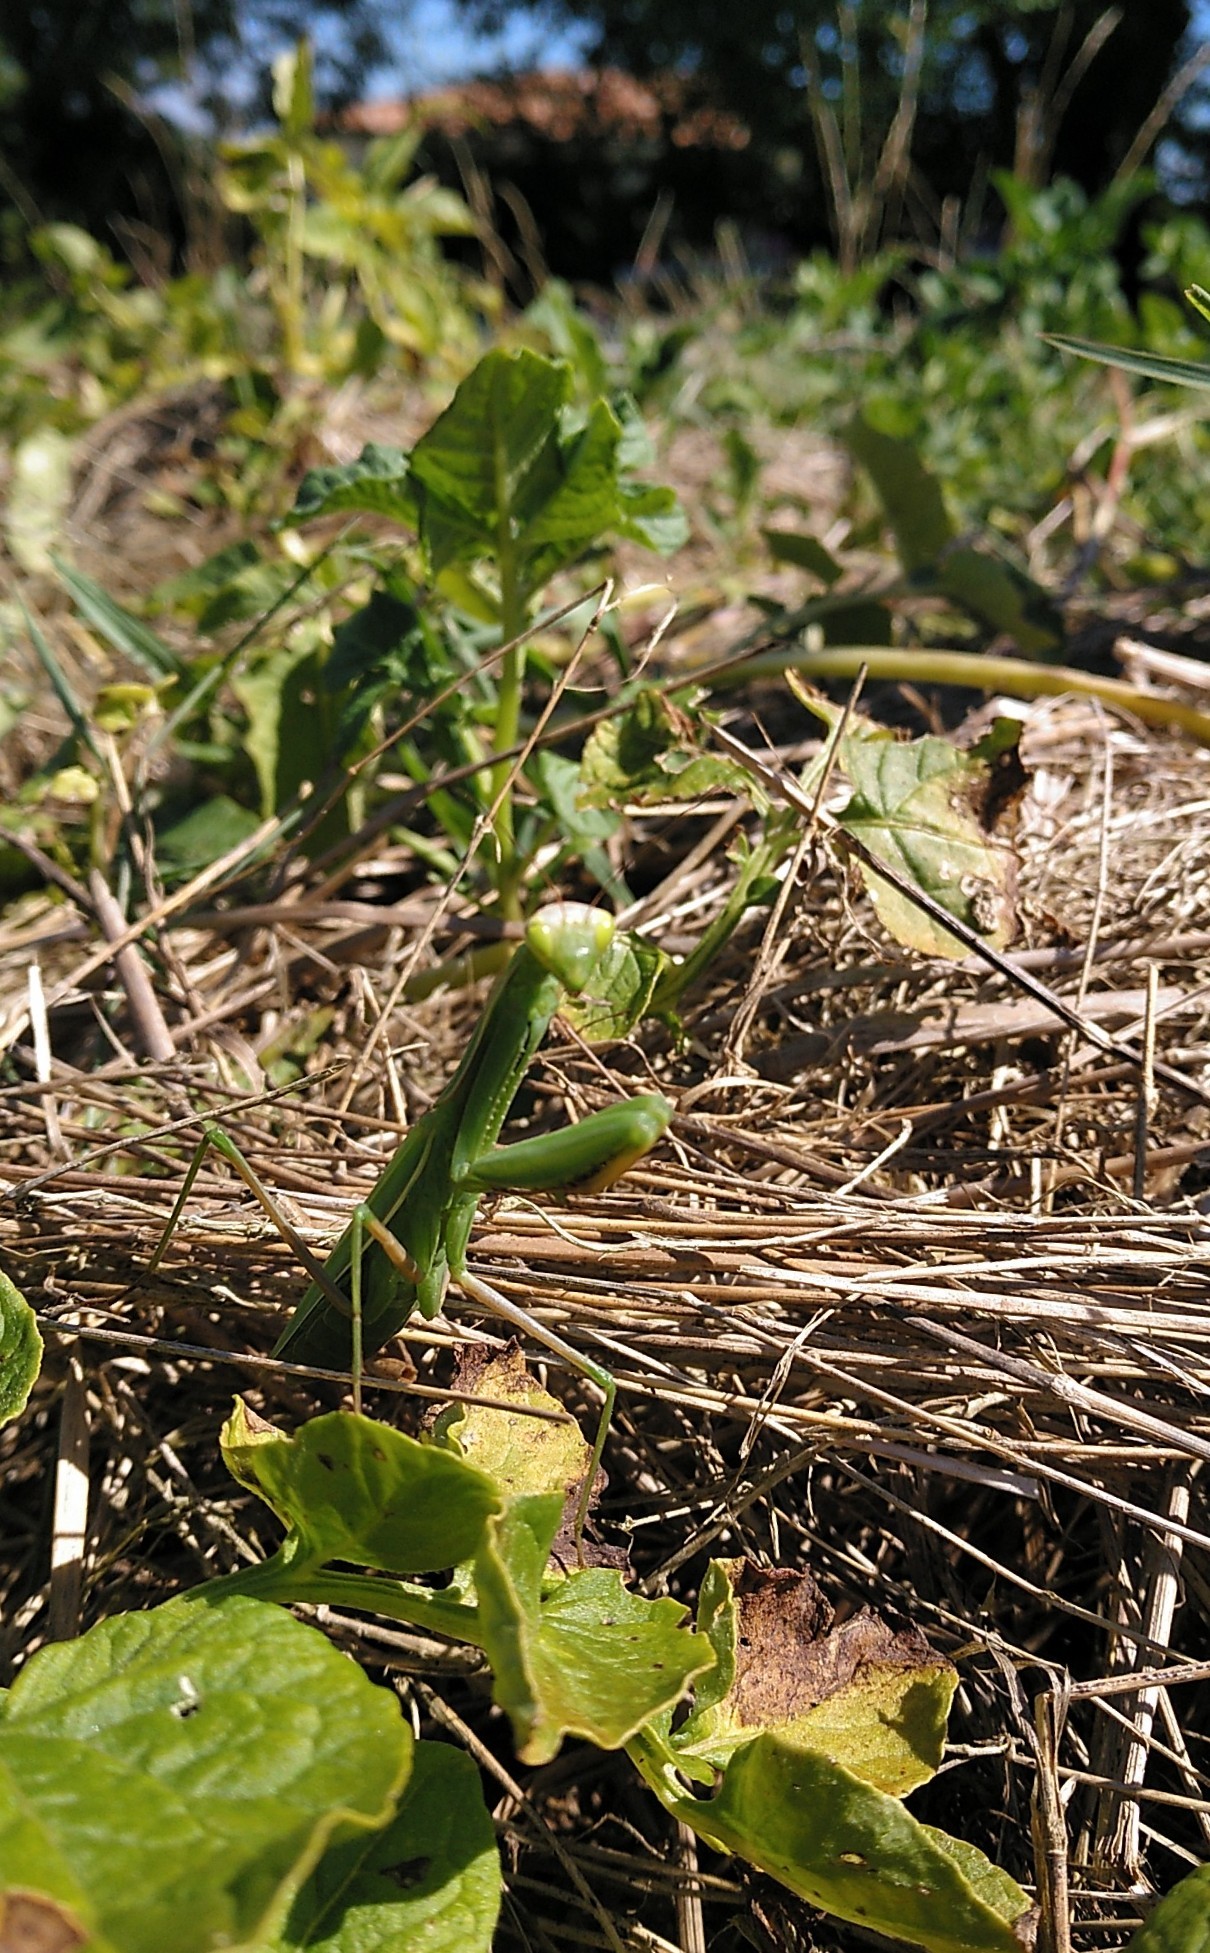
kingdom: Animalia
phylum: Arthropoda
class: Insecta
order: Mantodea
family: Mantidae
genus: Mantis
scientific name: Mantis religiosa
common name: Praying mantis
